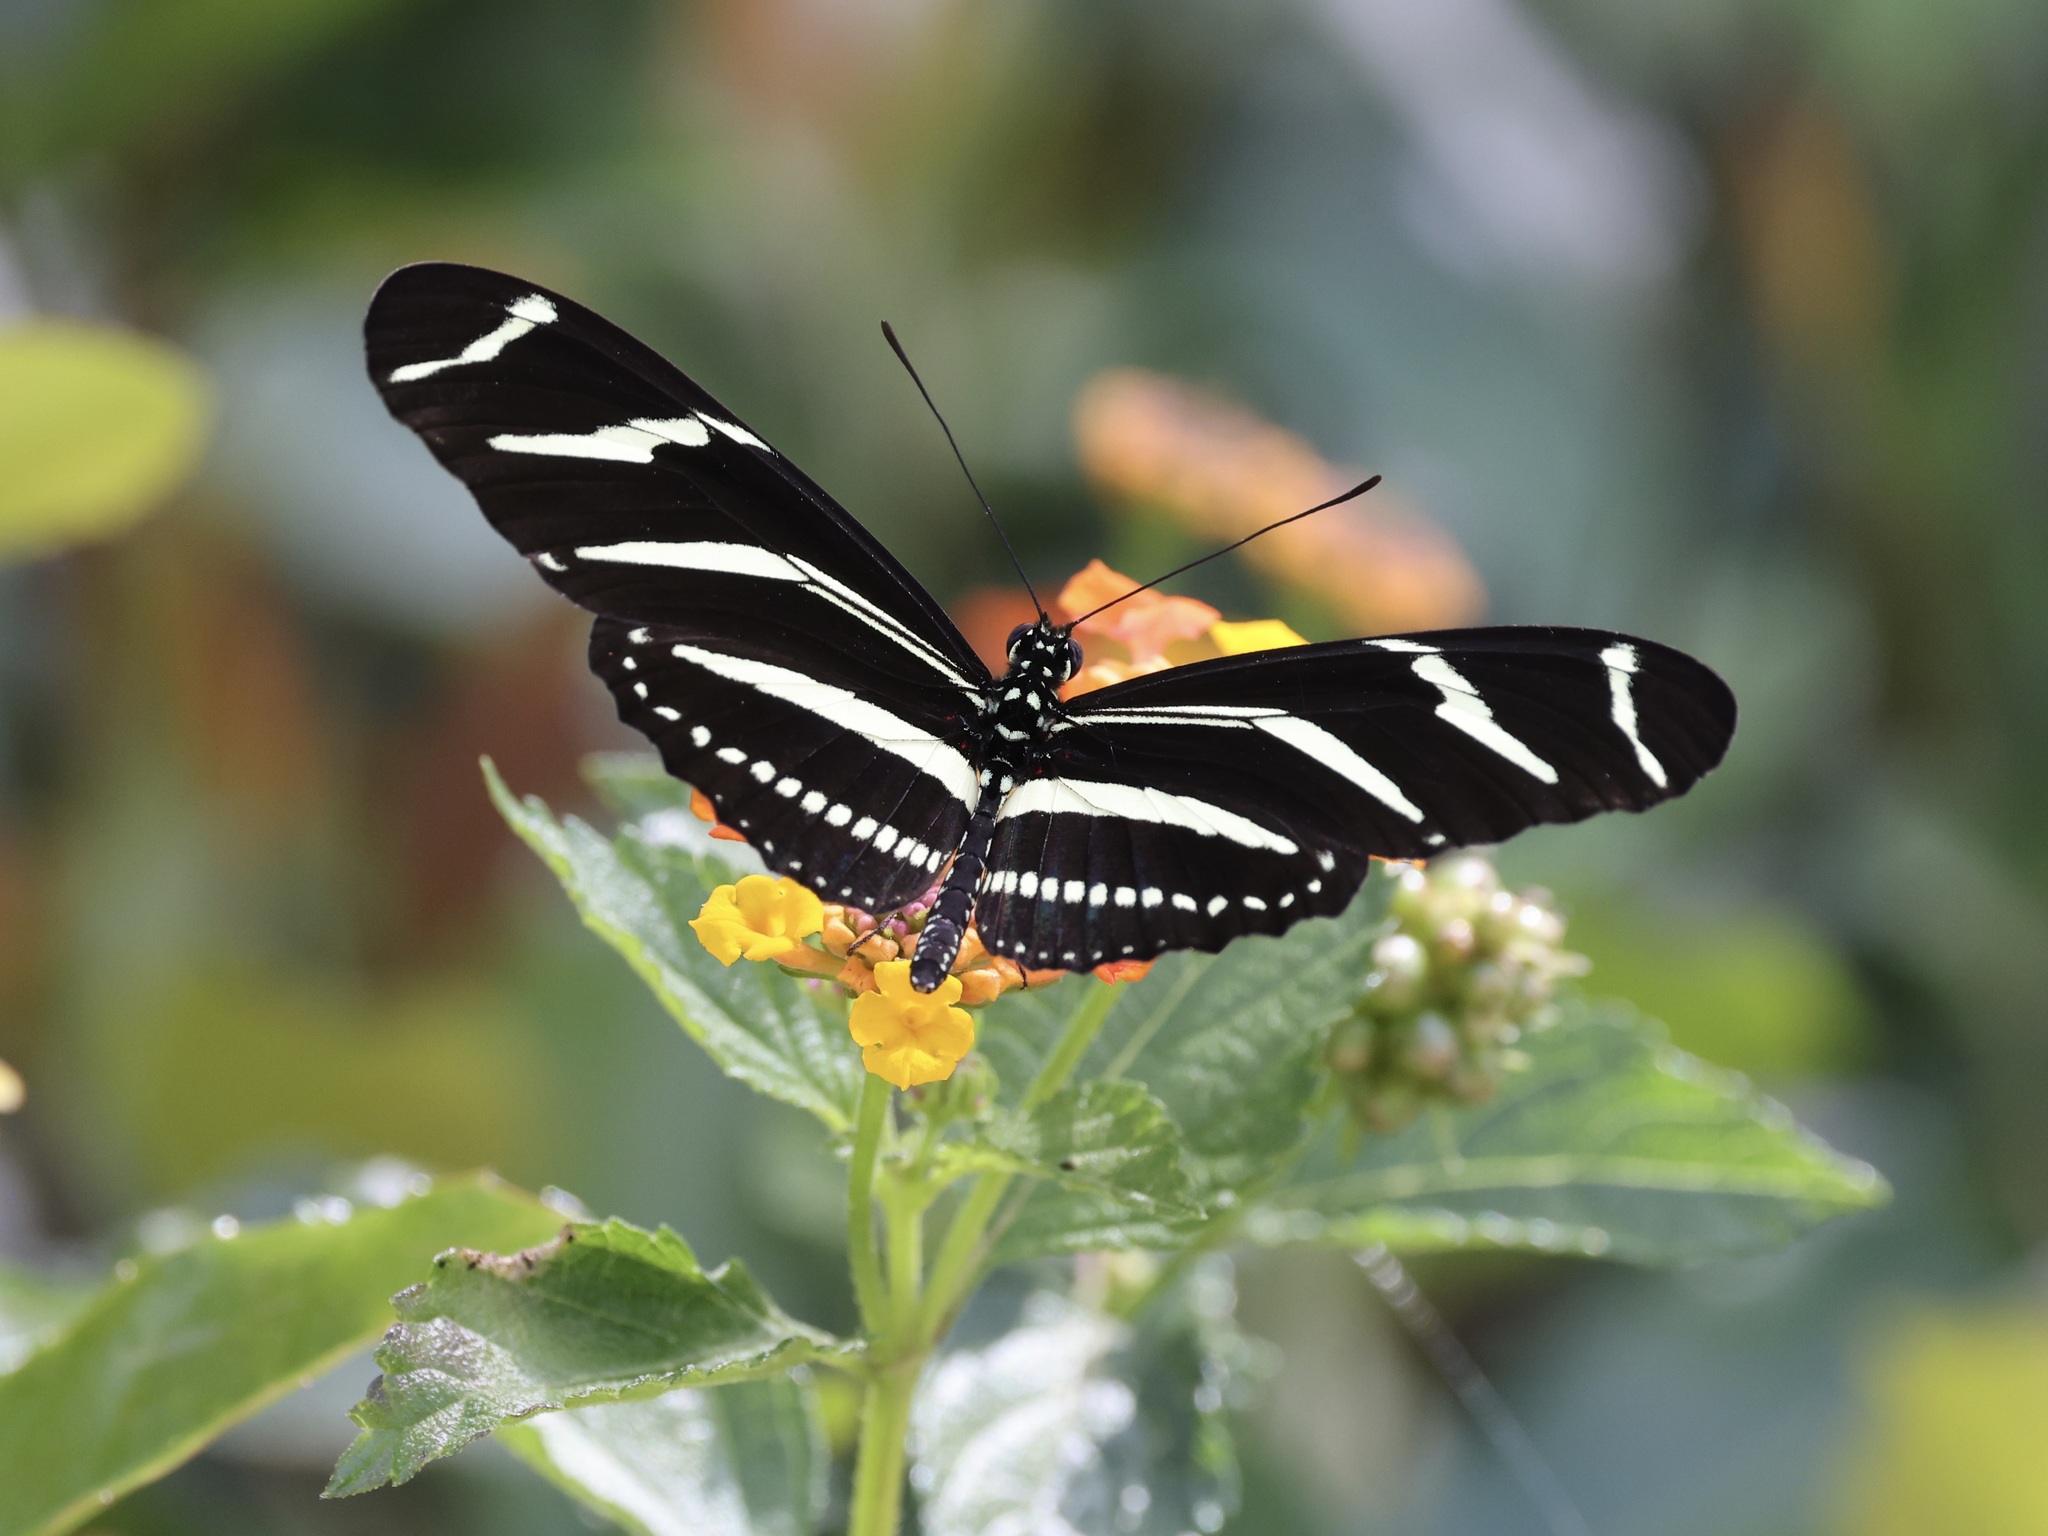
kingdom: Animalia
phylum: Arthropoda
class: Insecta
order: Lepidoptera
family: Nymphalidae
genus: Heliconius
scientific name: Heliconius charithonia
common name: Zebra long wing
